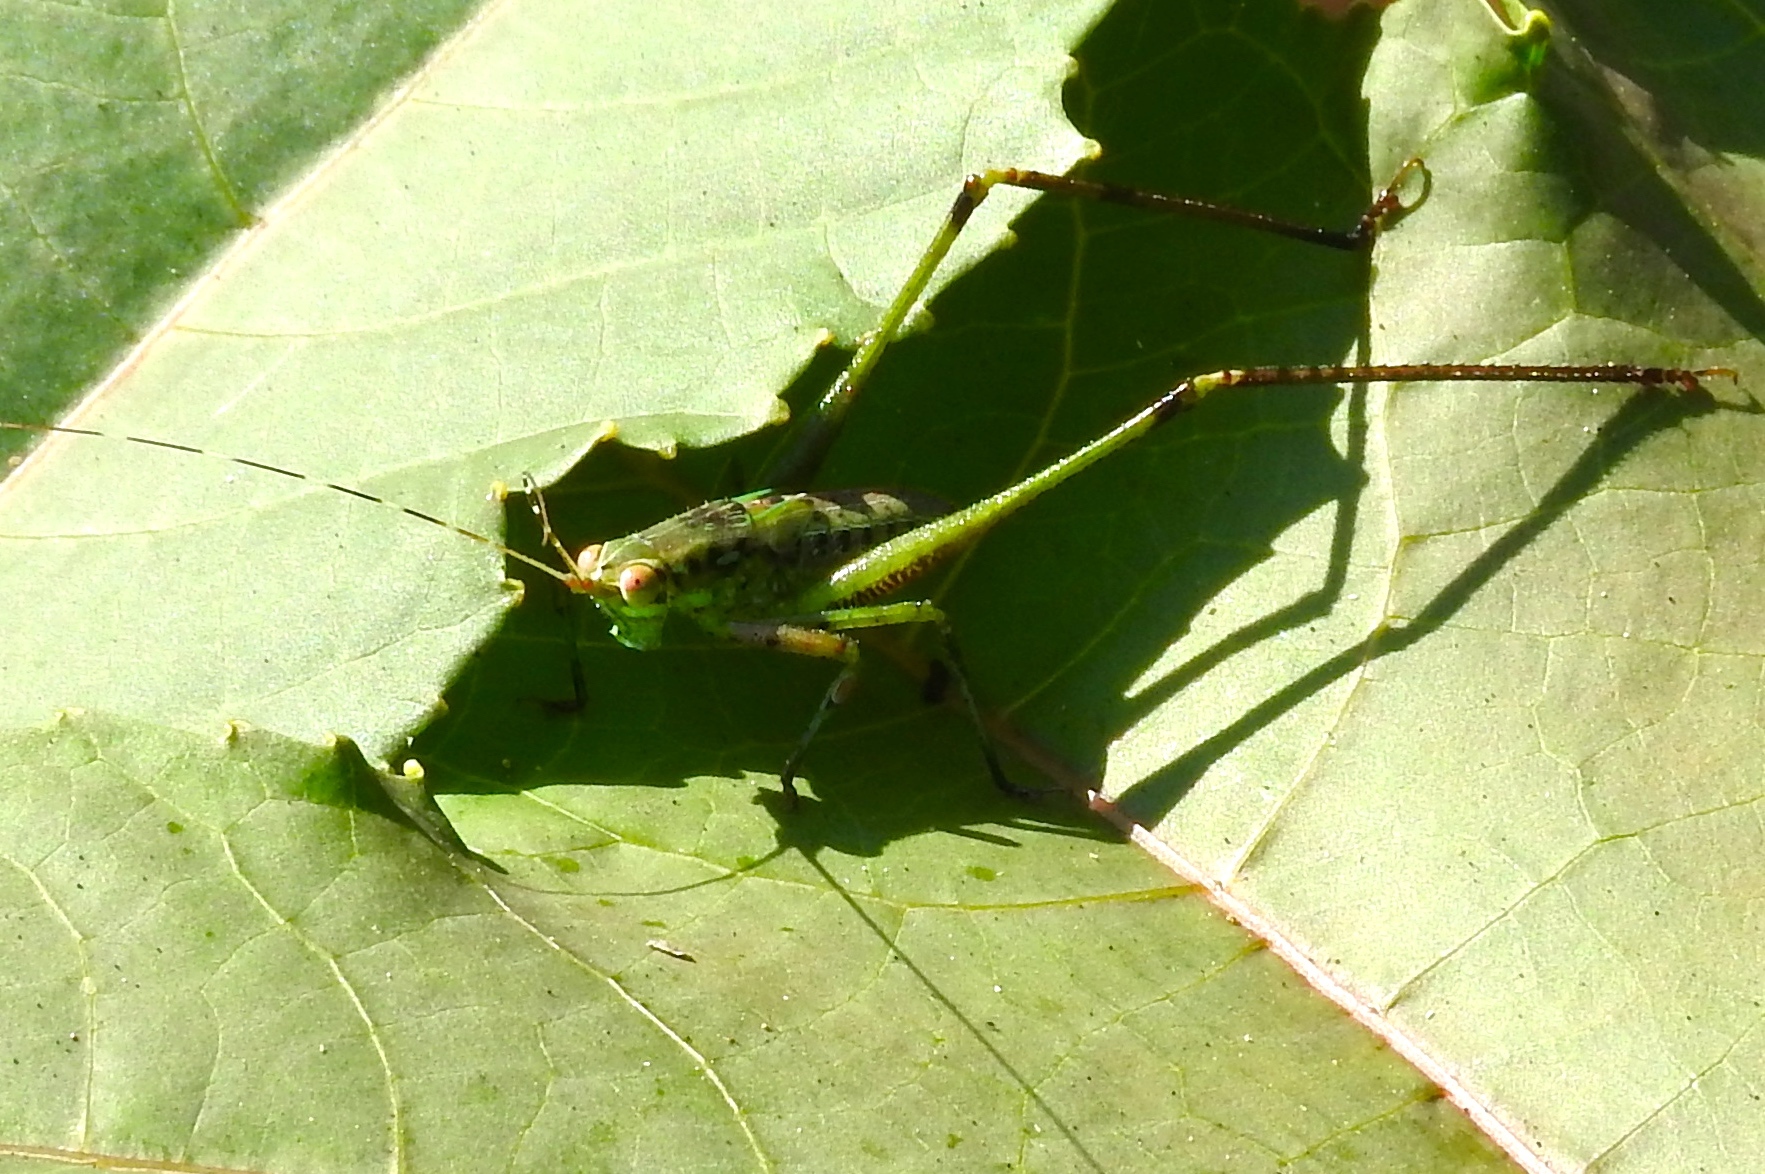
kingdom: Animalia
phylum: Arthropoda
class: Insecta
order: Orthoptera
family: Tettigoniidae
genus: Scudderia
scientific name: Scudderia
